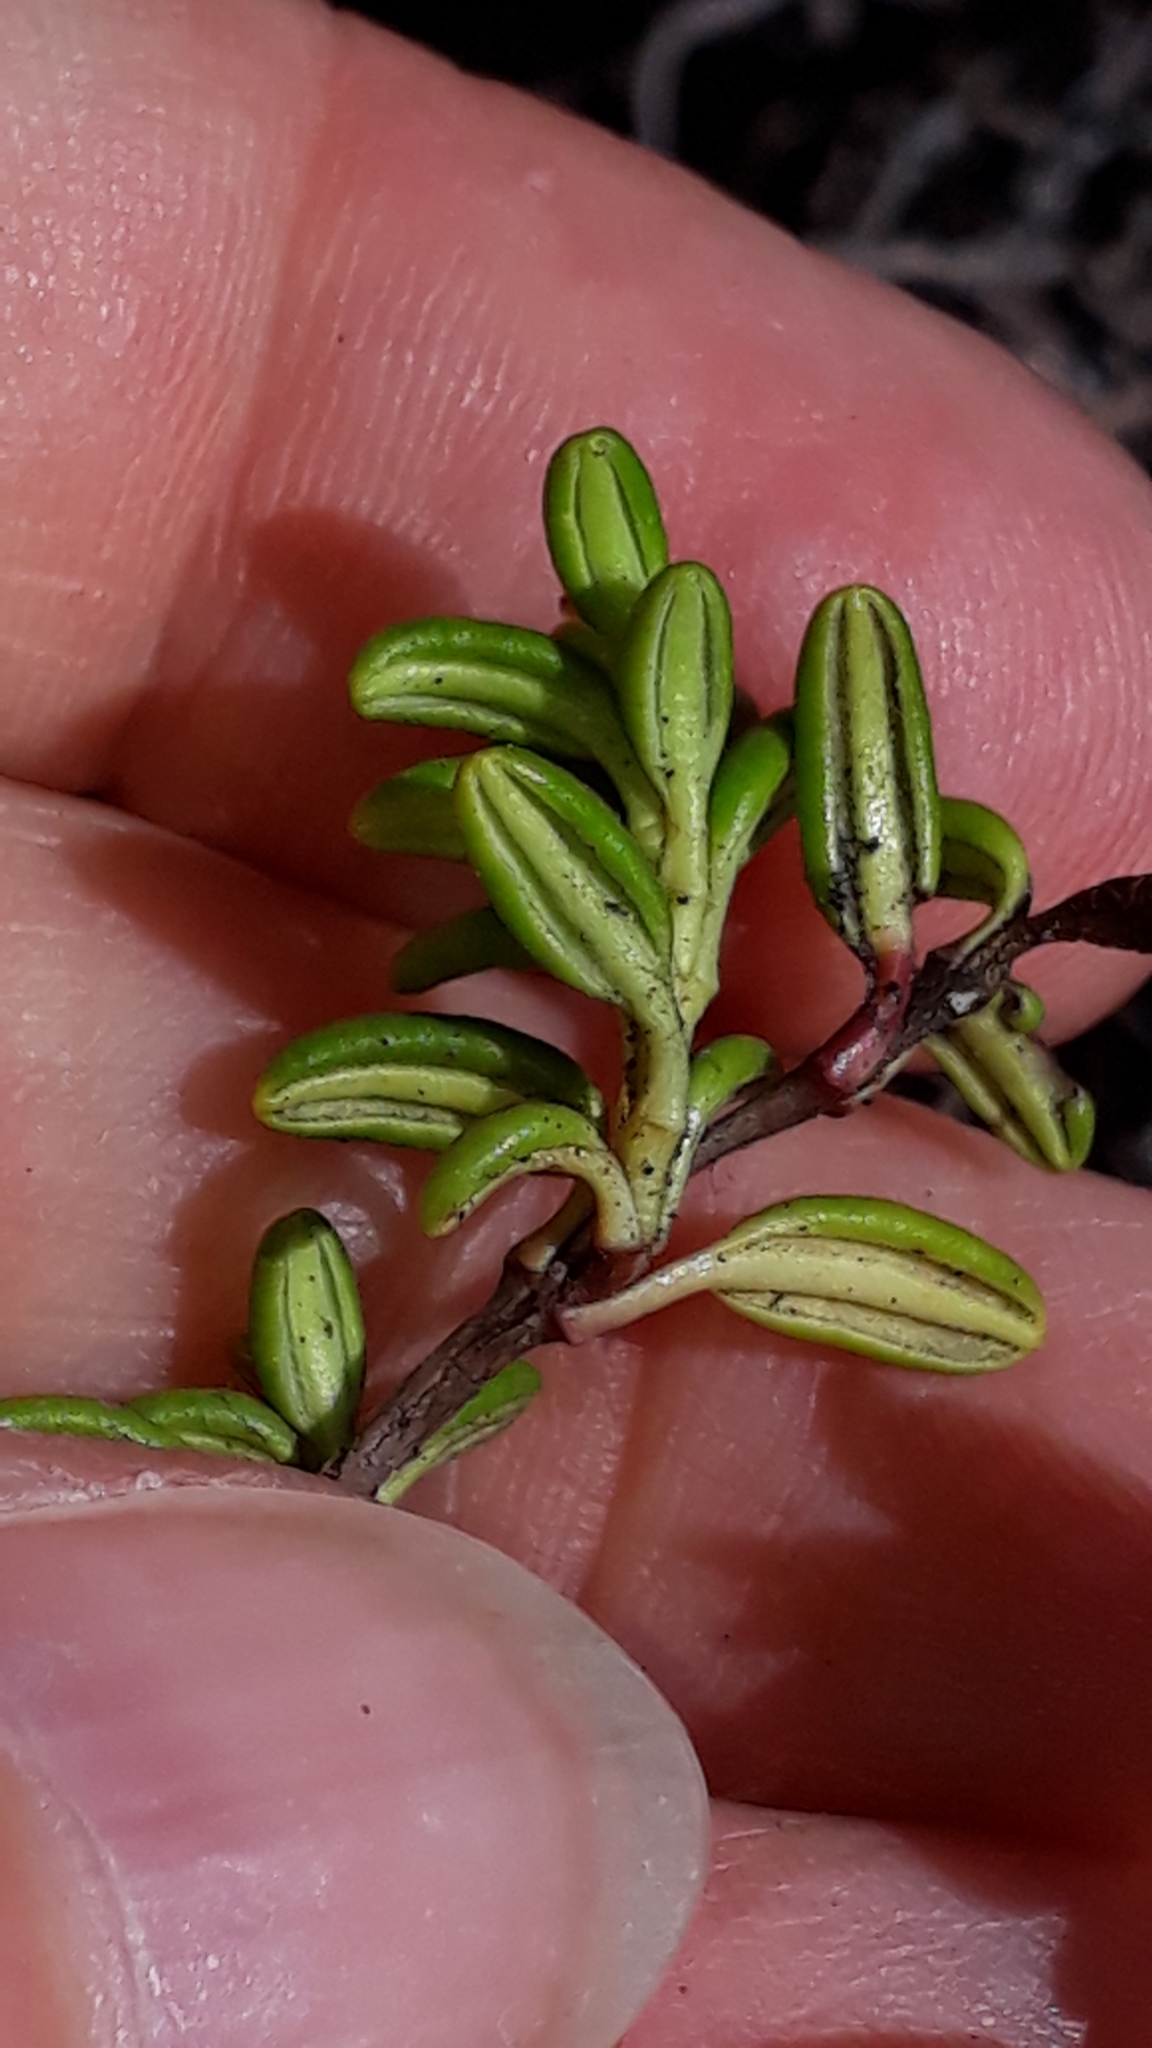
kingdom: Plantae
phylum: Tracheophyta
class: Magnoliopsida
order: Ericales
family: Ericaceae
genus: Kalmia
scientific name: Kalmia procumbens
